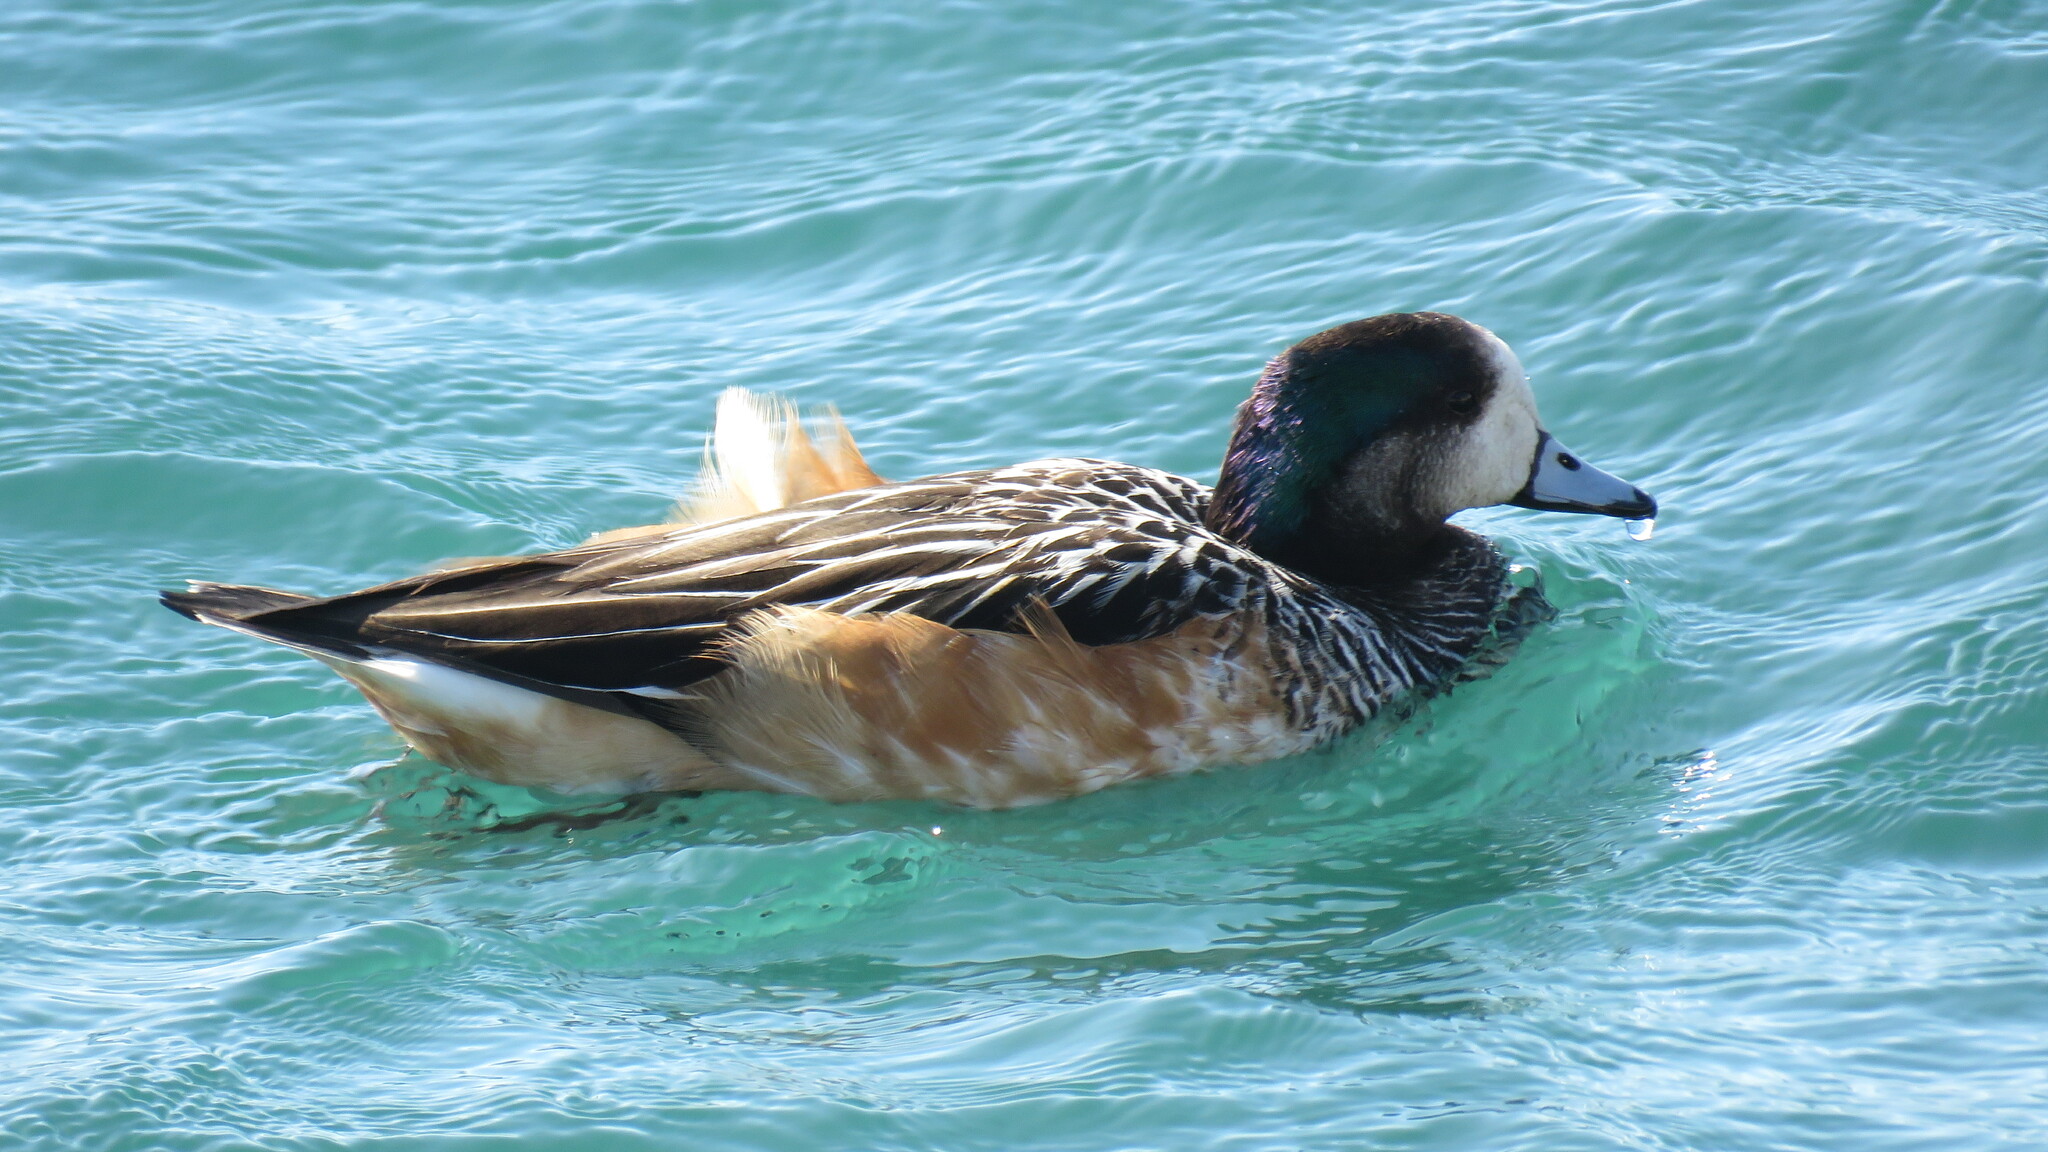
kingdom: Animalia
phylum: Chordata
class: Aves
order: Anseriformes
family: Anatidae
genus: Mareca
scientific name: Mareca sibilatrix
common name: Chiloe wigeon
